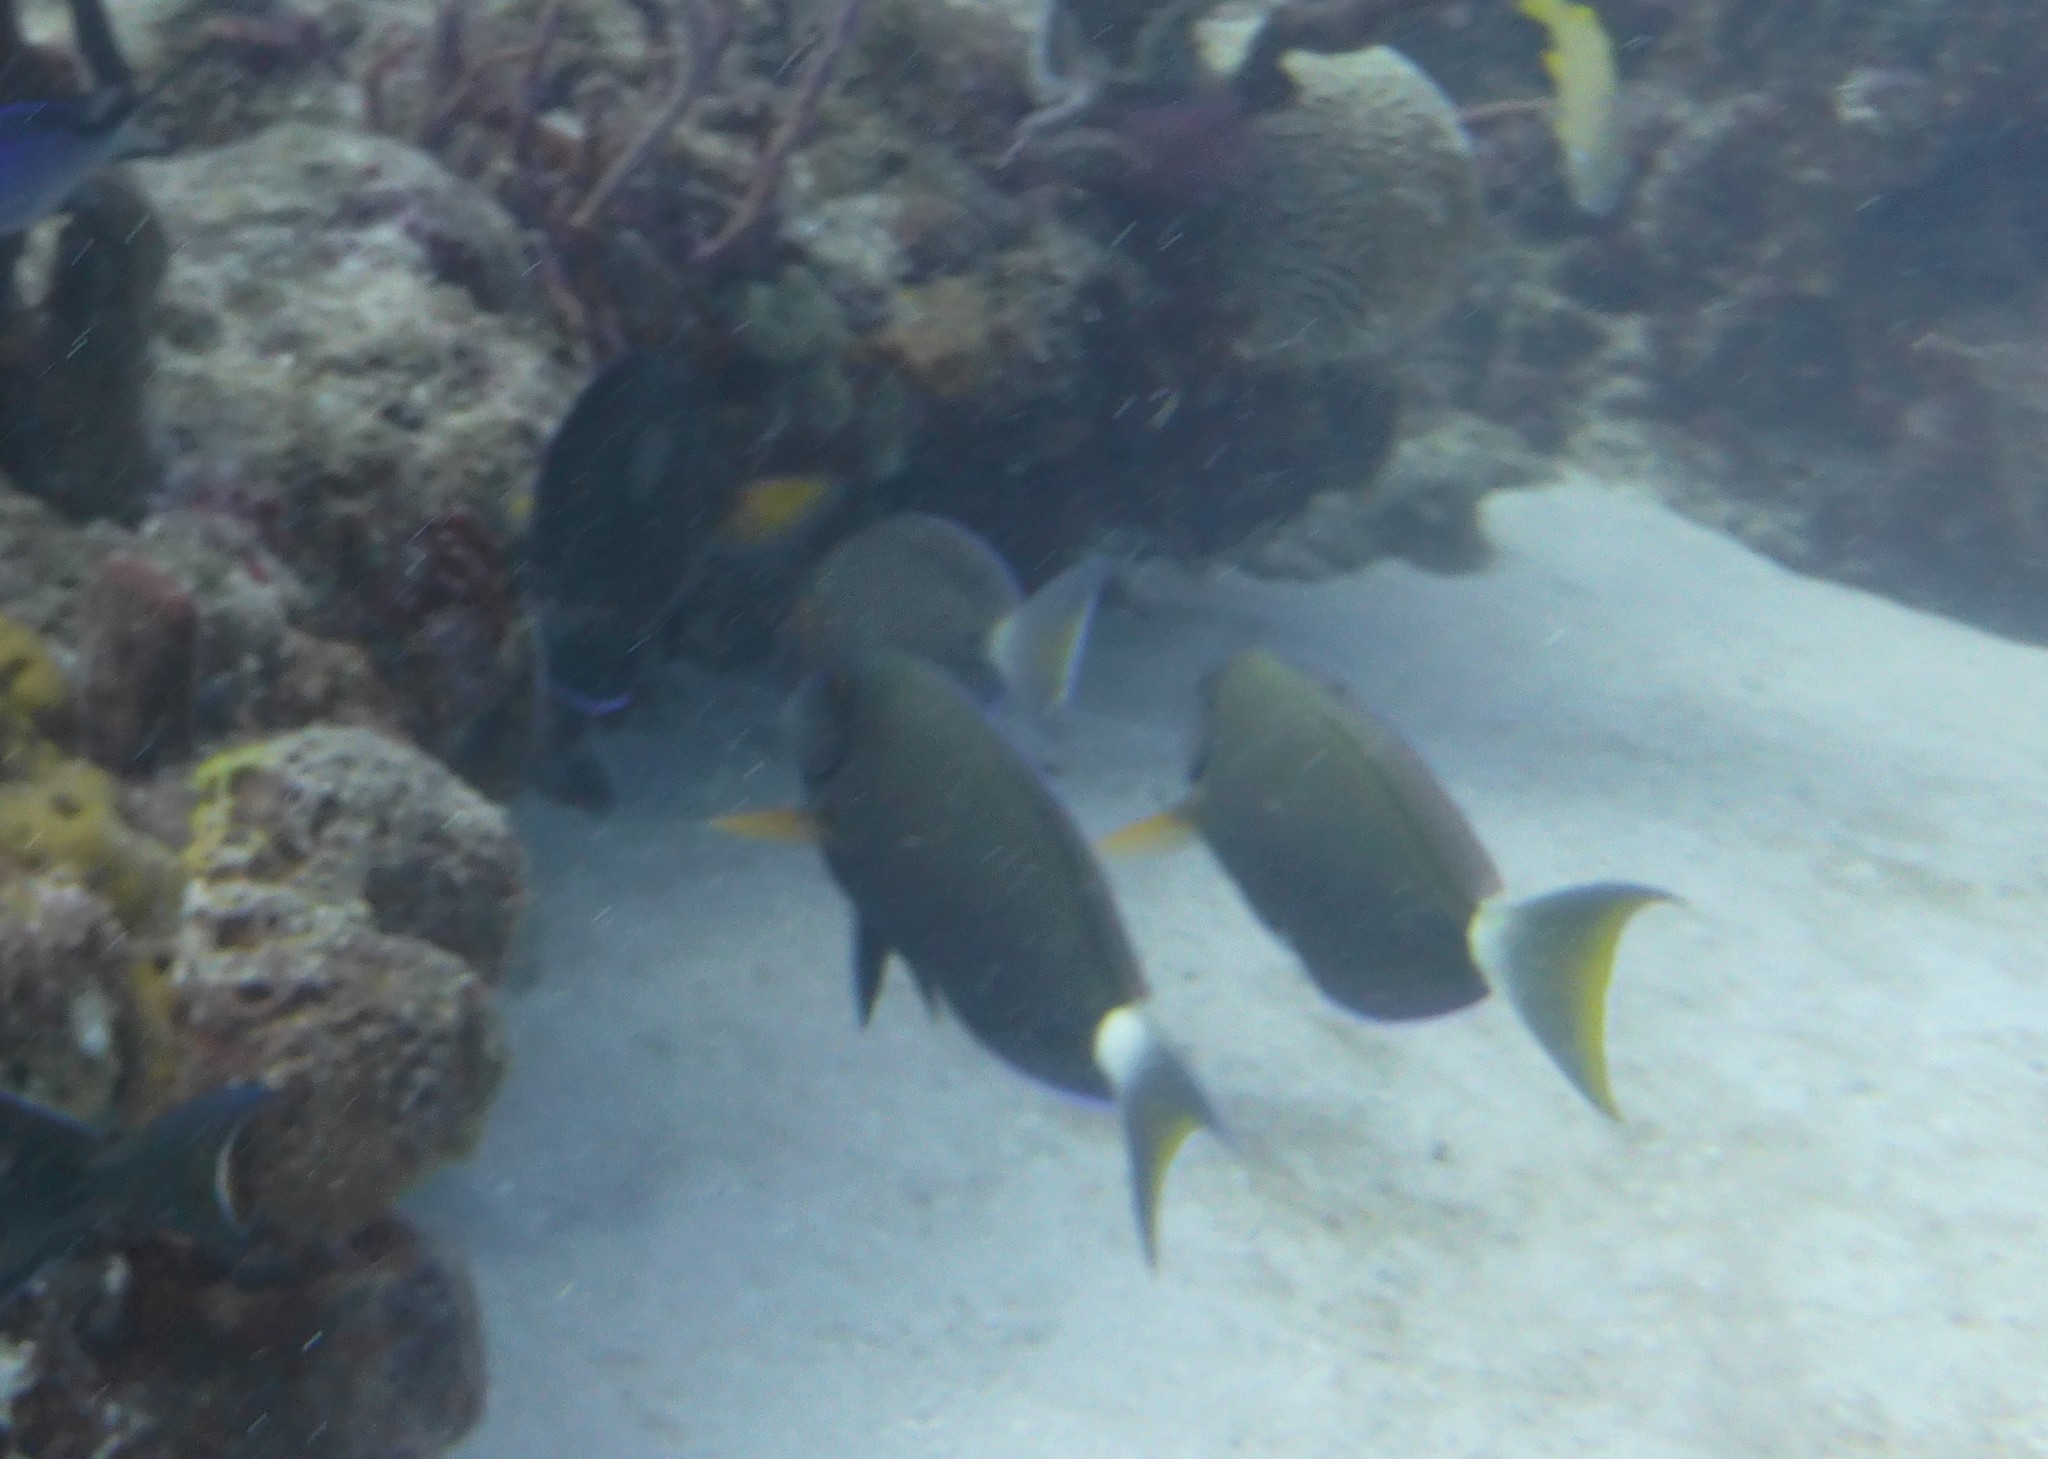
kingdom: Animalia
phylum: Chordata
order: Perciformes
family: Acanthuridae
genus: Acanthurus
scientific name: Acanthurus bahianus
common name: Ocean surgeon
